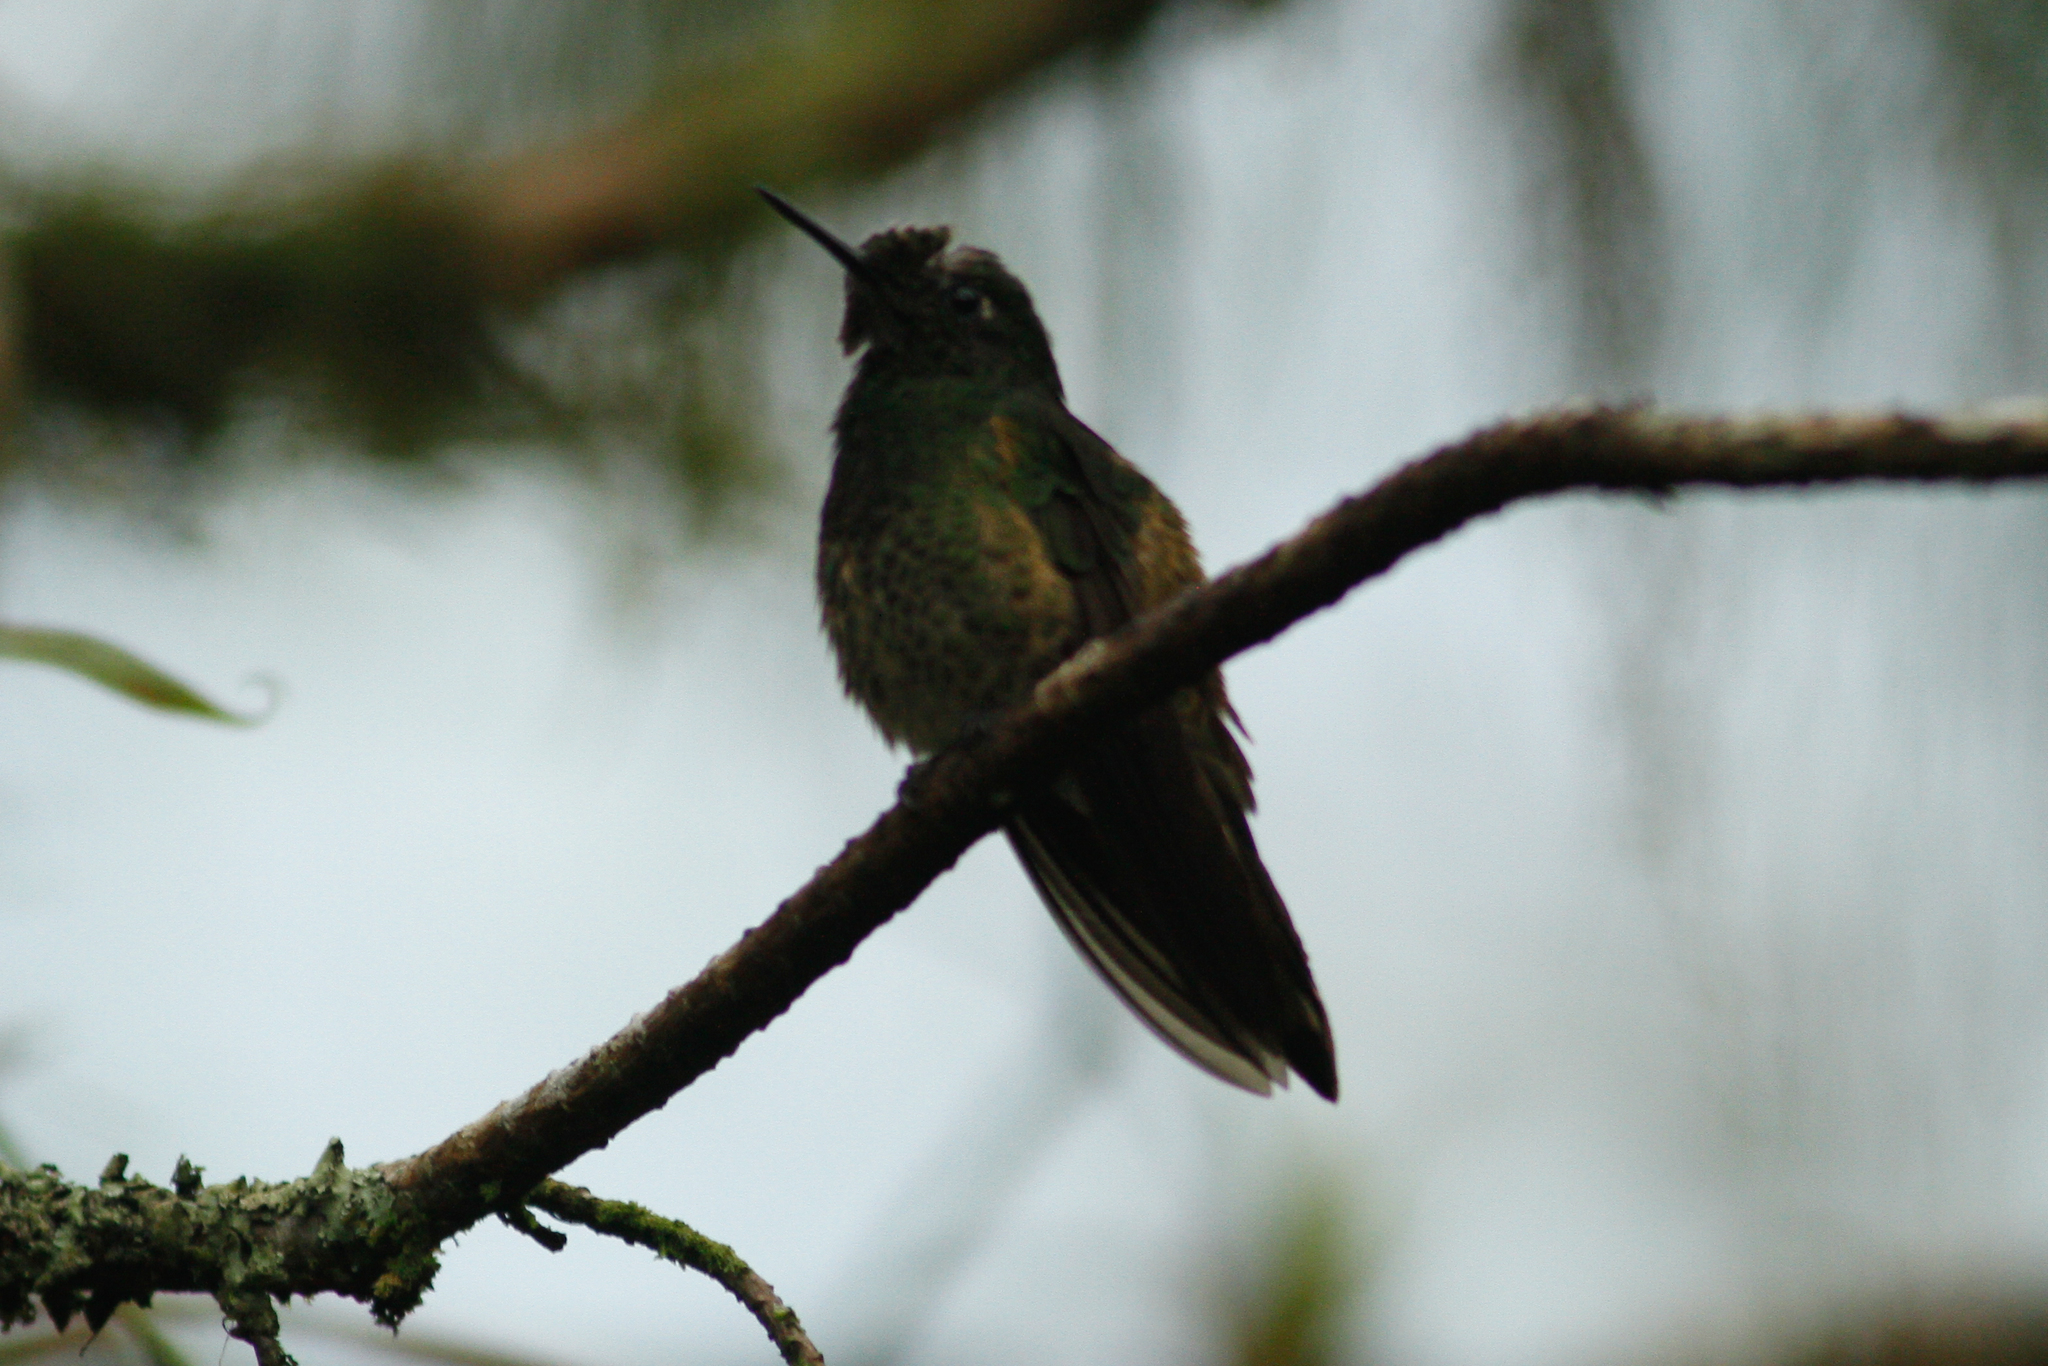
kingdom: Animalia
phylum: Chordata
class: Aves
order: Apodiformes
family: Trochilidae
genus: Boissonneaua
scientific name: Boissonneaua flavescens
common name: Buff-tailed coronet
